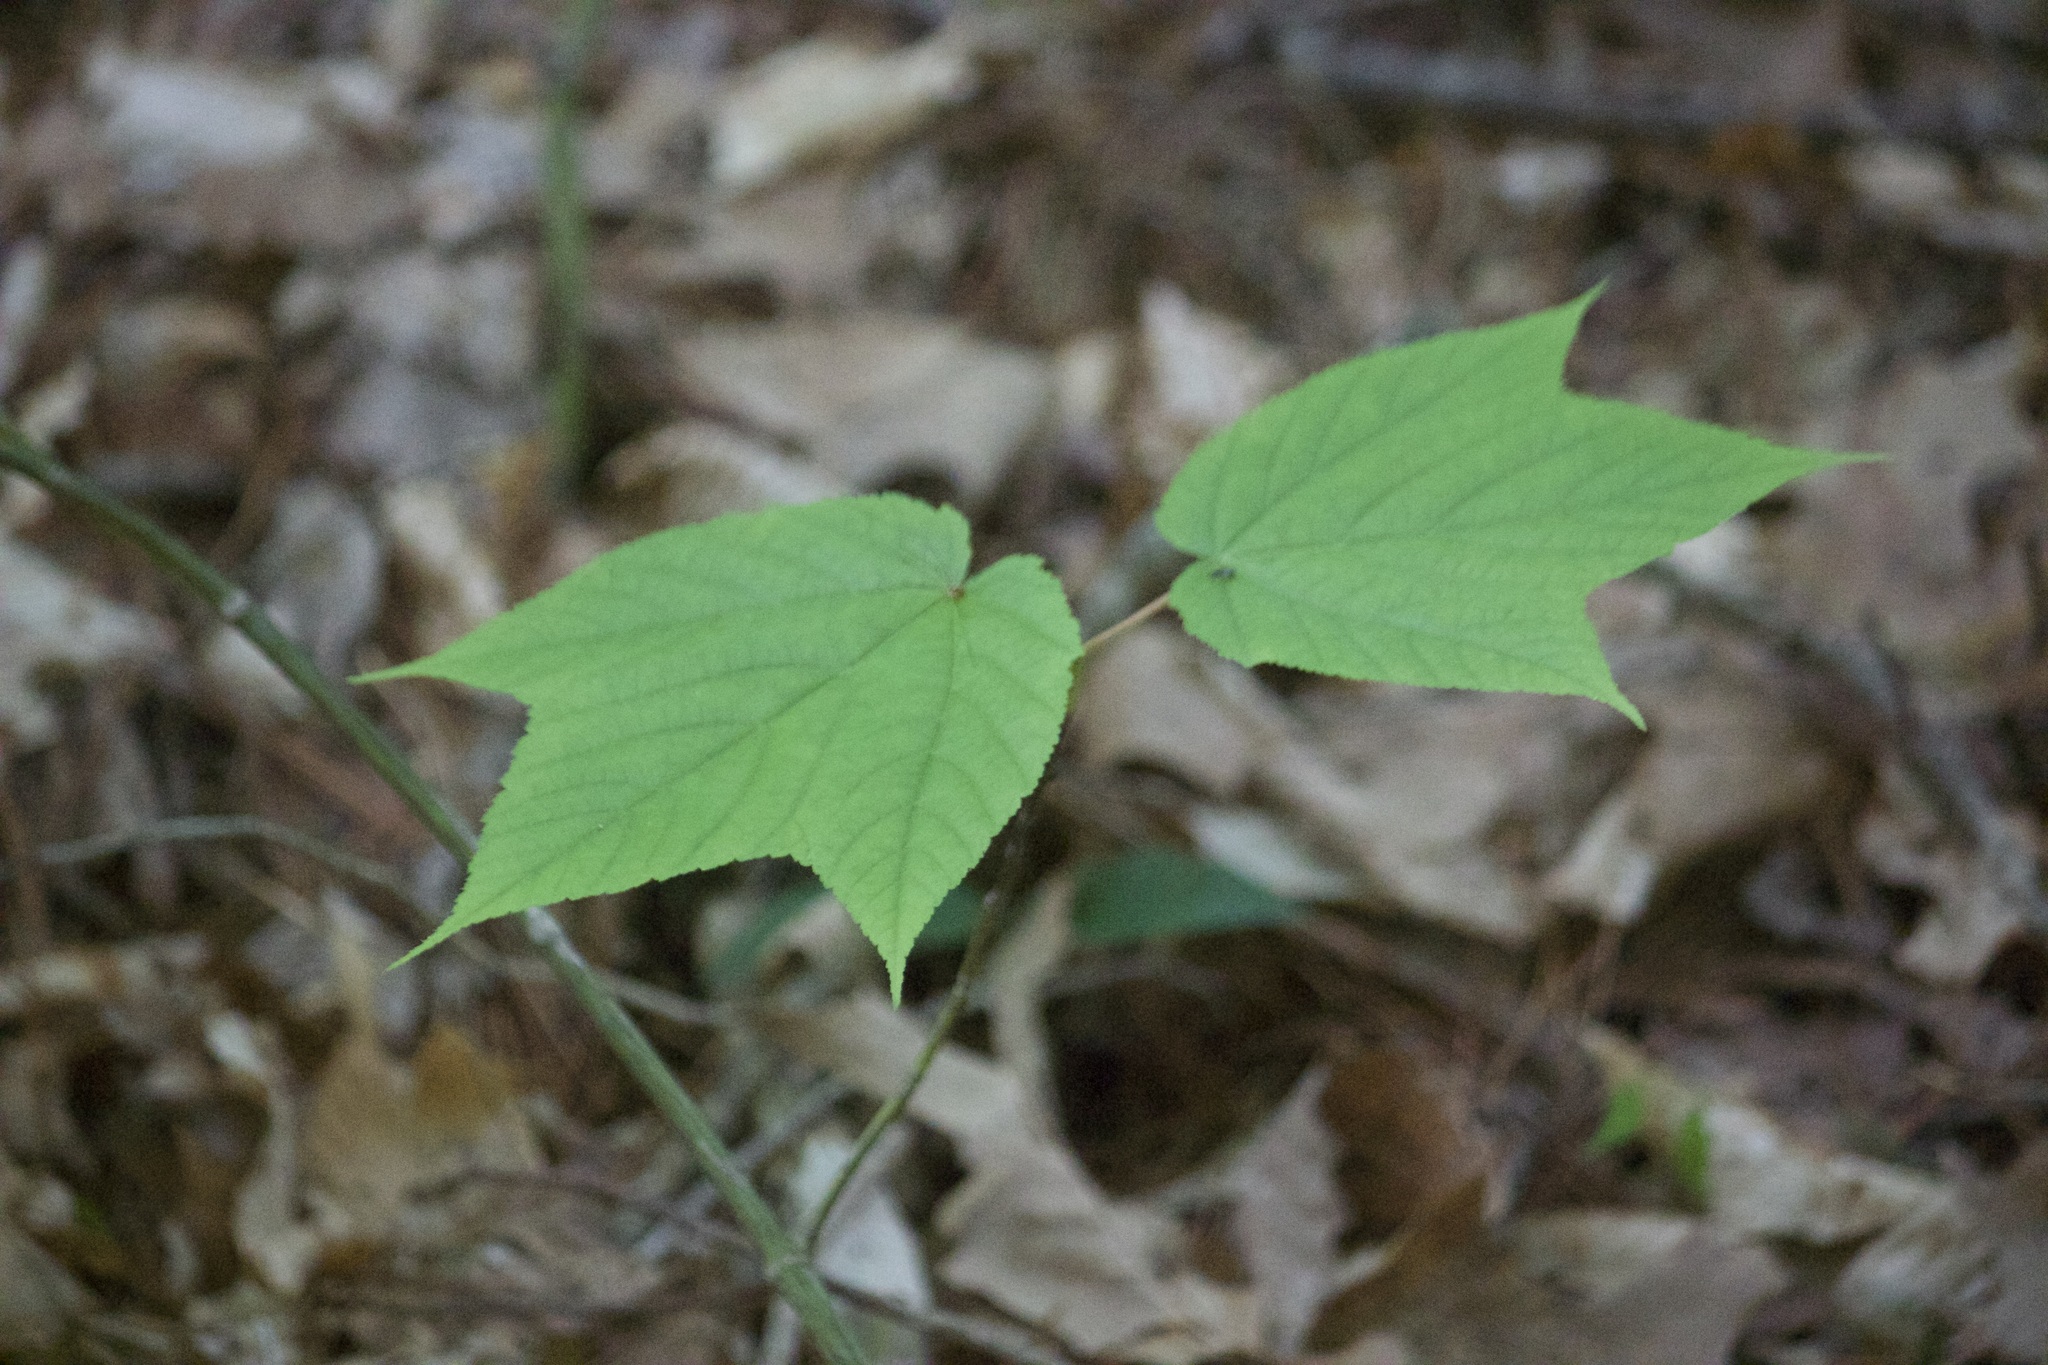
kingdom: Plantae
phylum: Tracheophyta
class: Magnoliopsida
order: Sapindales
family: Sapindaceae
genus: Acer
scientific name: Acer pensylvanicum
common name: Moosewood
